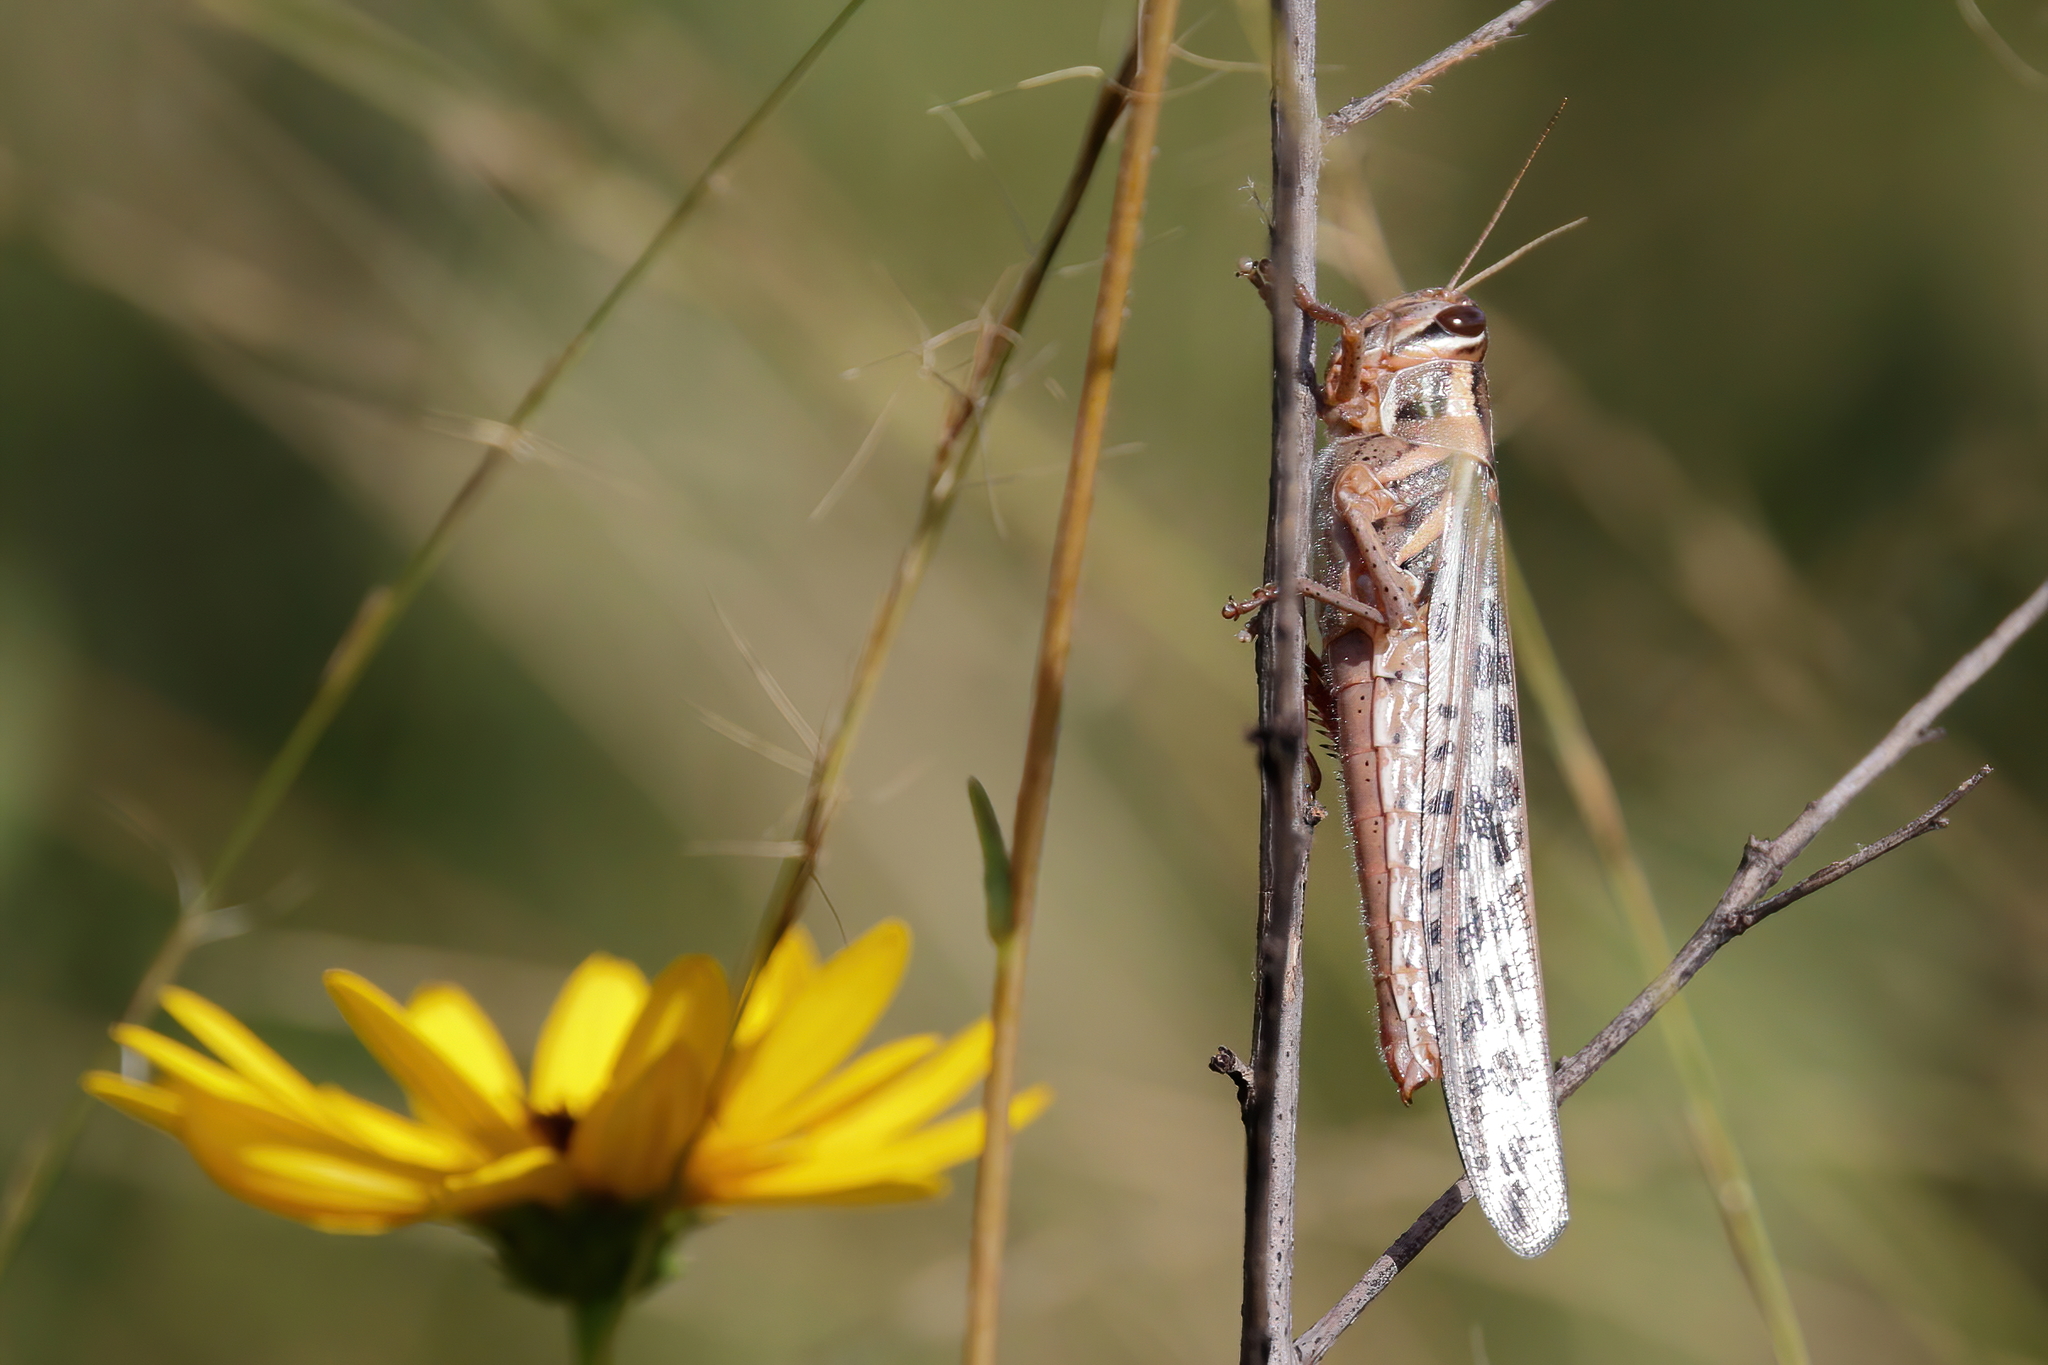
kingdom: Animalia
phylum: Arthropoda
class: Insecta
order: Orthoptera
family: Acrididae
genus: Schistocerca
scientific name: Schistocerca americana
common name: American bird locust
